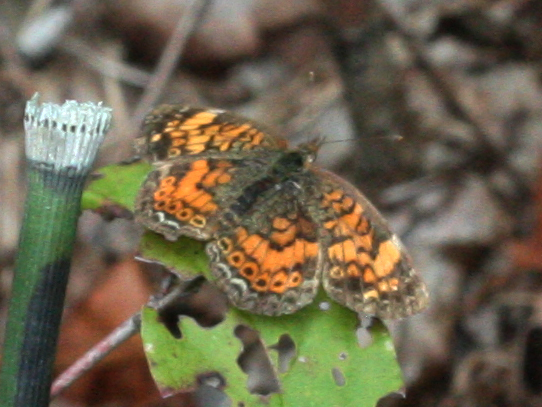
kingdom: Animalia
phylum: Arthropoda
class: Insecta
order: Lepidoptera
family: Nymphalidae
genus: Phyciodes
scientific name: Phyciodes tharos
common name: Pearl crescent
